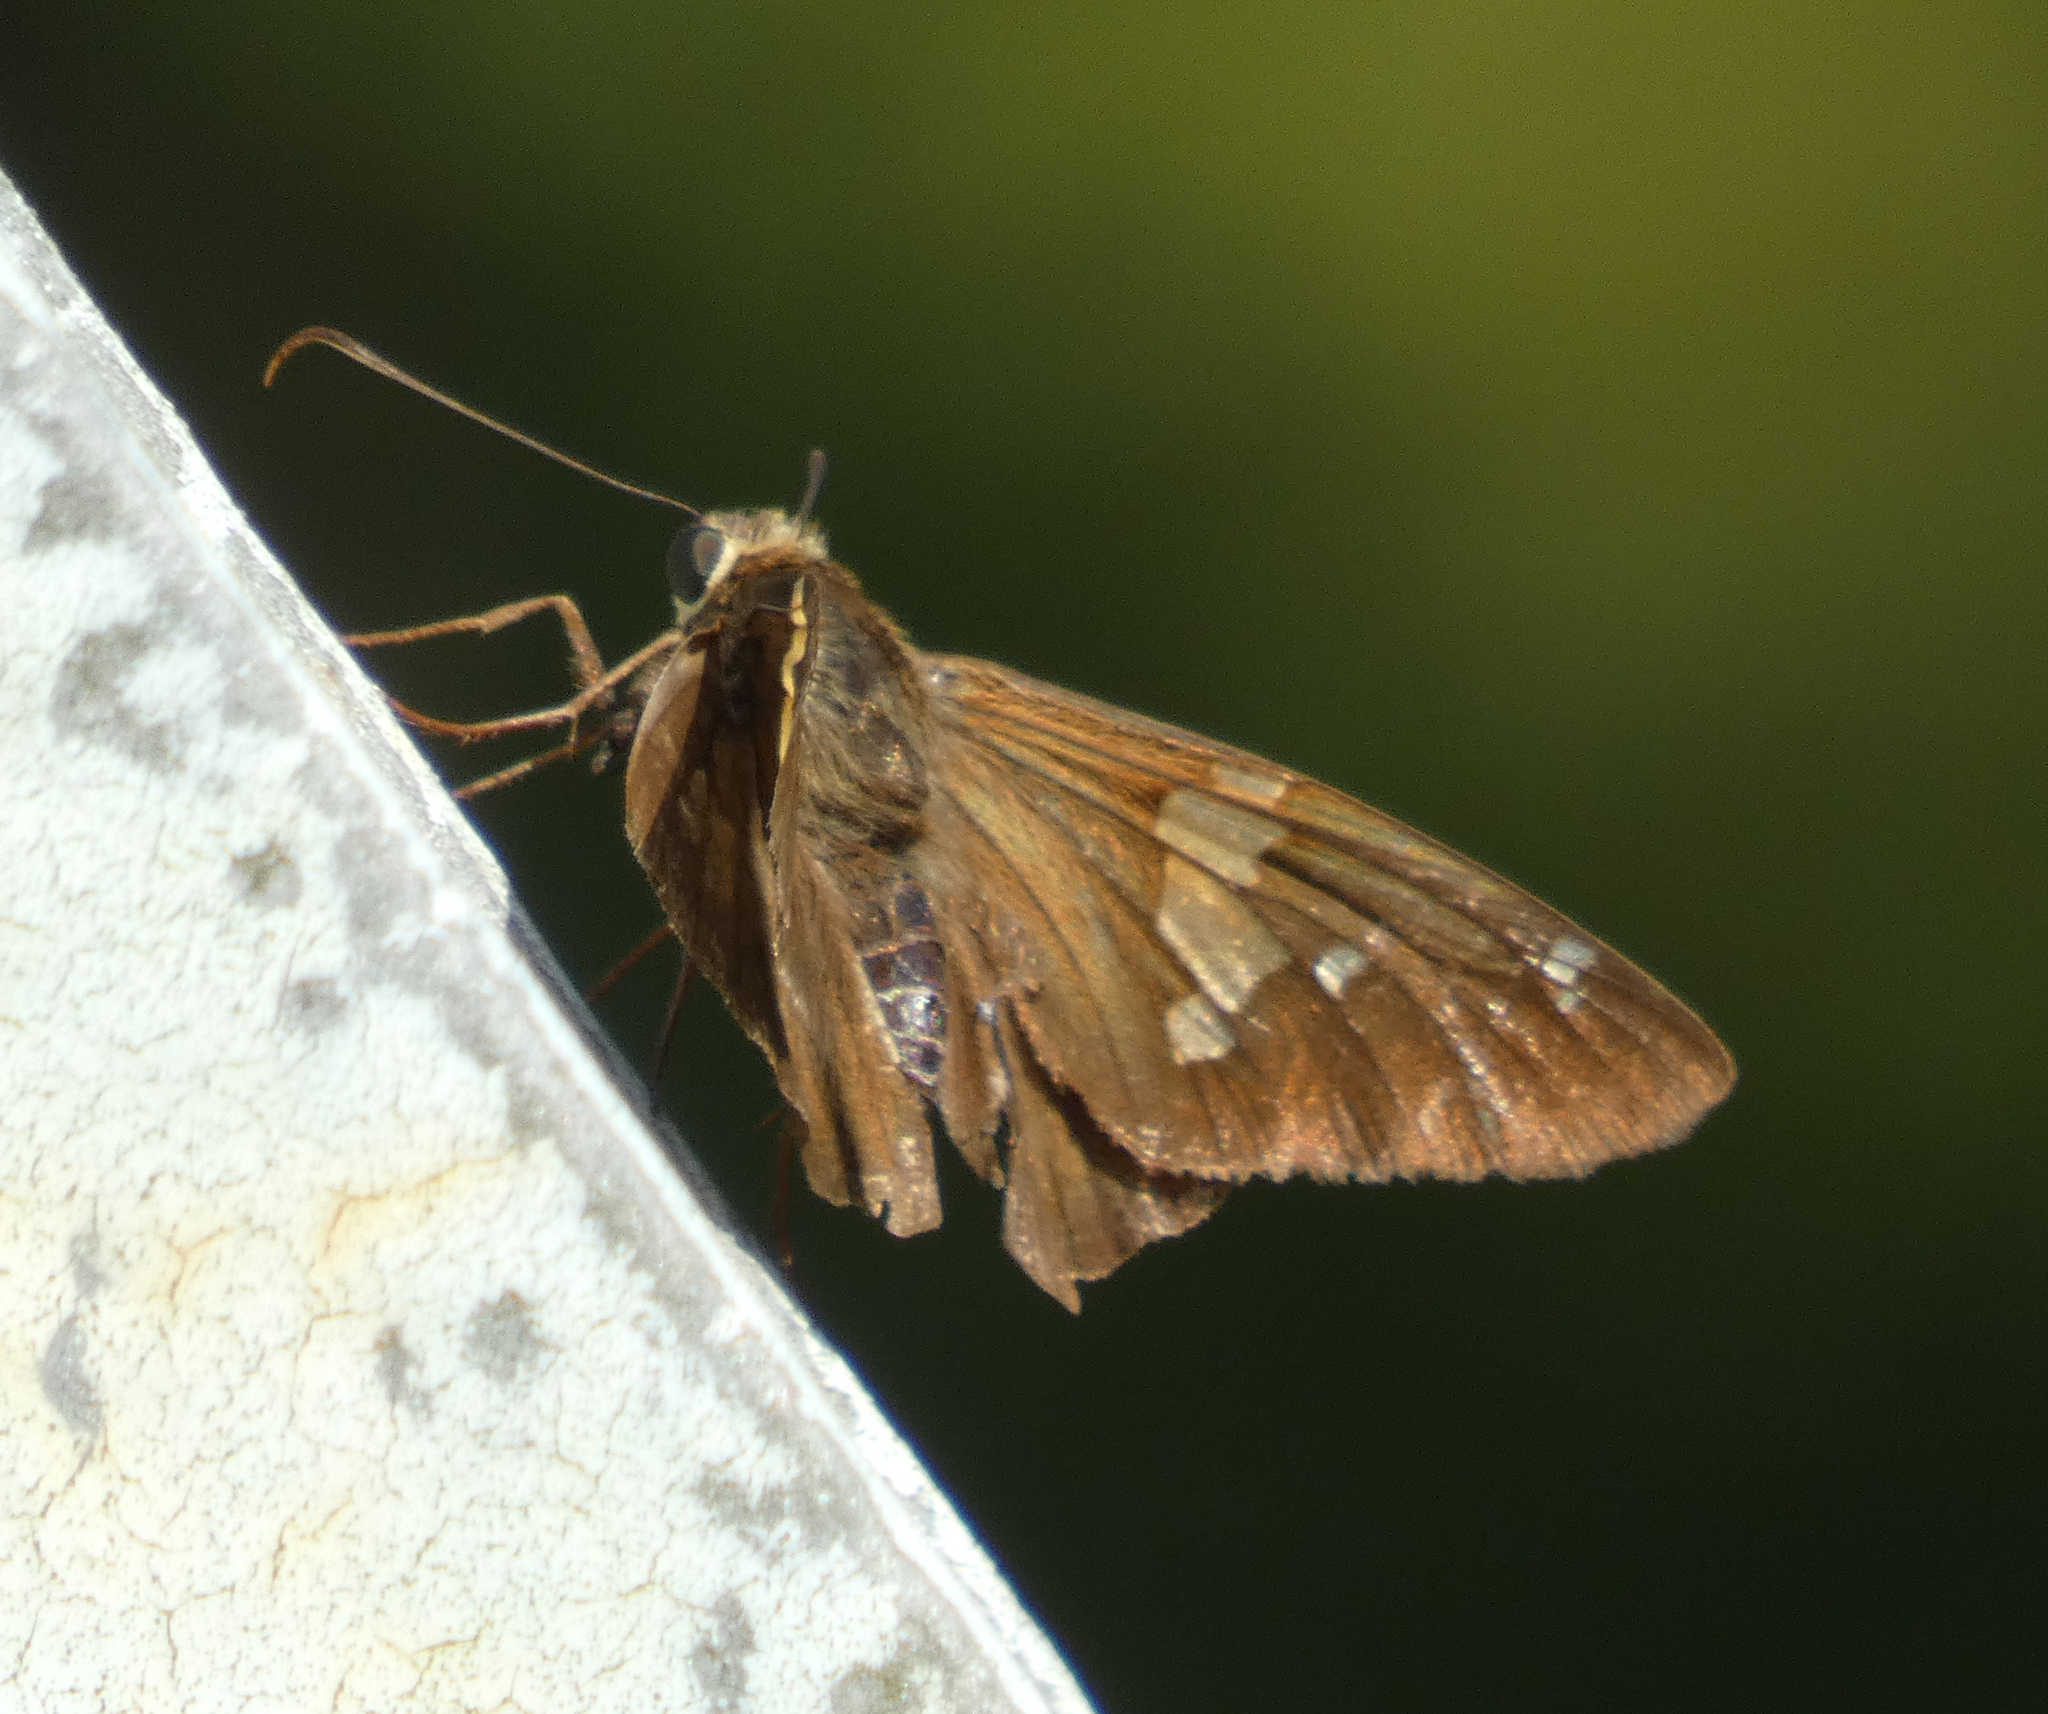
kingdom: Animalia
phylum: Arthropoda
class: Insecta
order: Lepidoptera
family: Hesperiidae
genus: Epargyreus
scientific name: Epargyreus clarus
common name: Silver-spotted skipper
